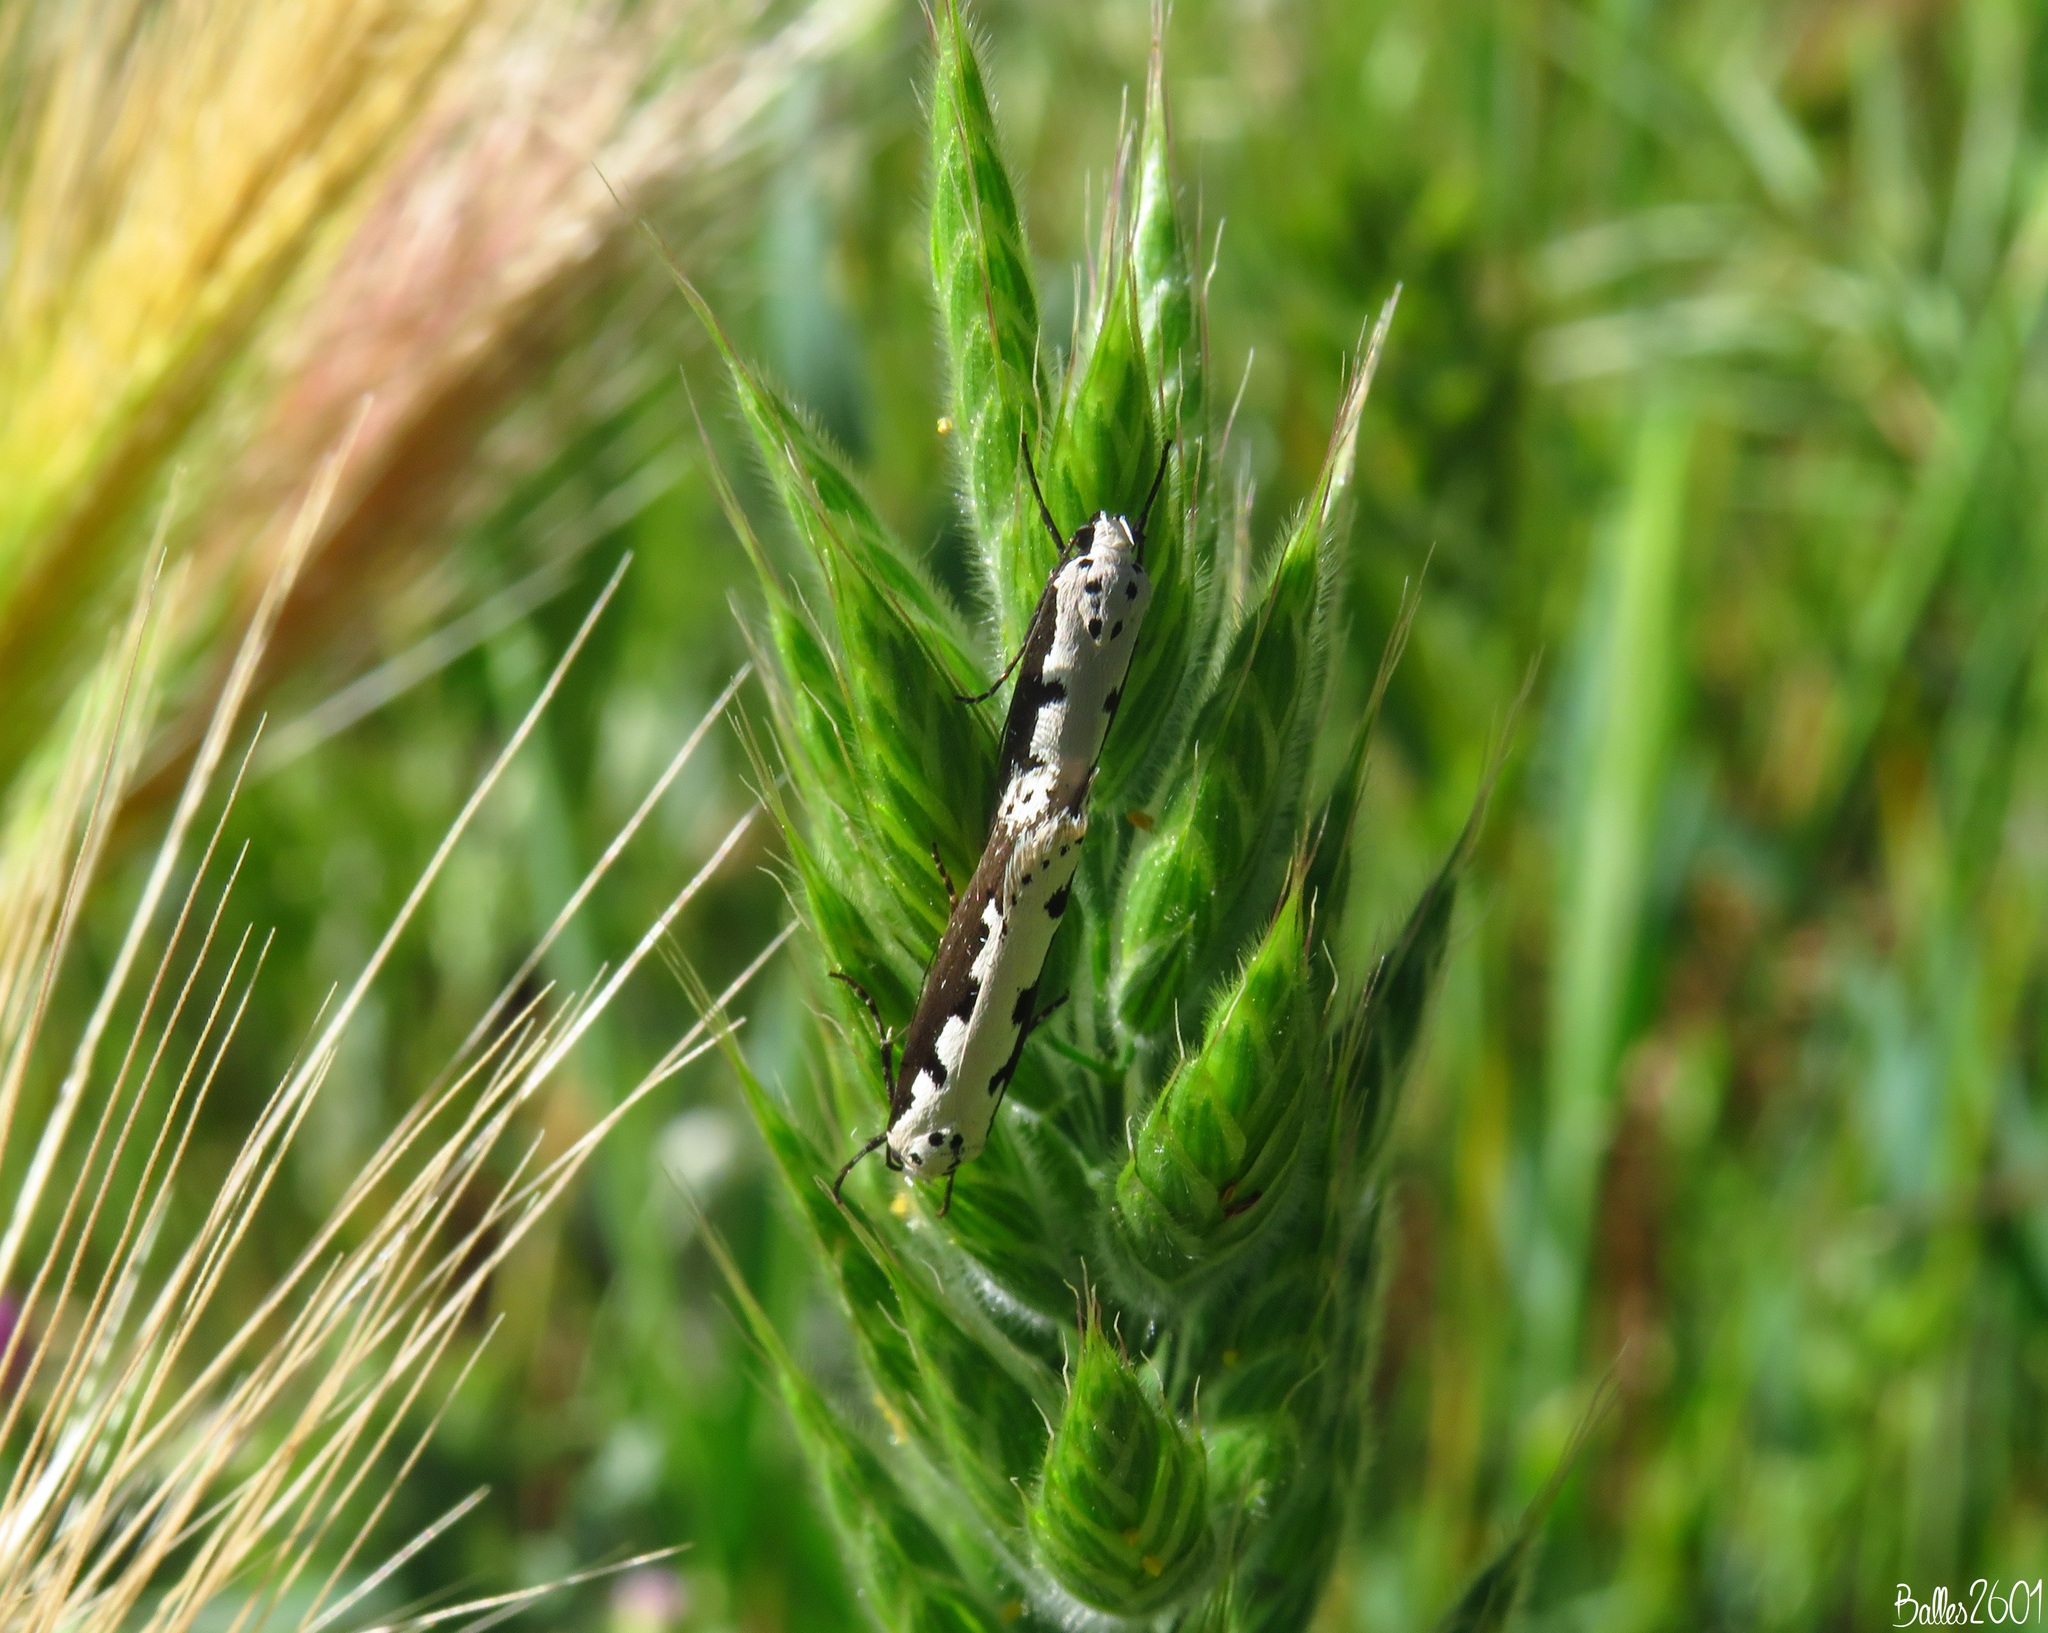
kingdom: Animalia
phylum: Arthropoda
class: Insecta
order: Lepidoptera
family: Ethmiidae
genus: Ethmia
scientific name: Ethmia bipunctella
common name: Bordered ermel
